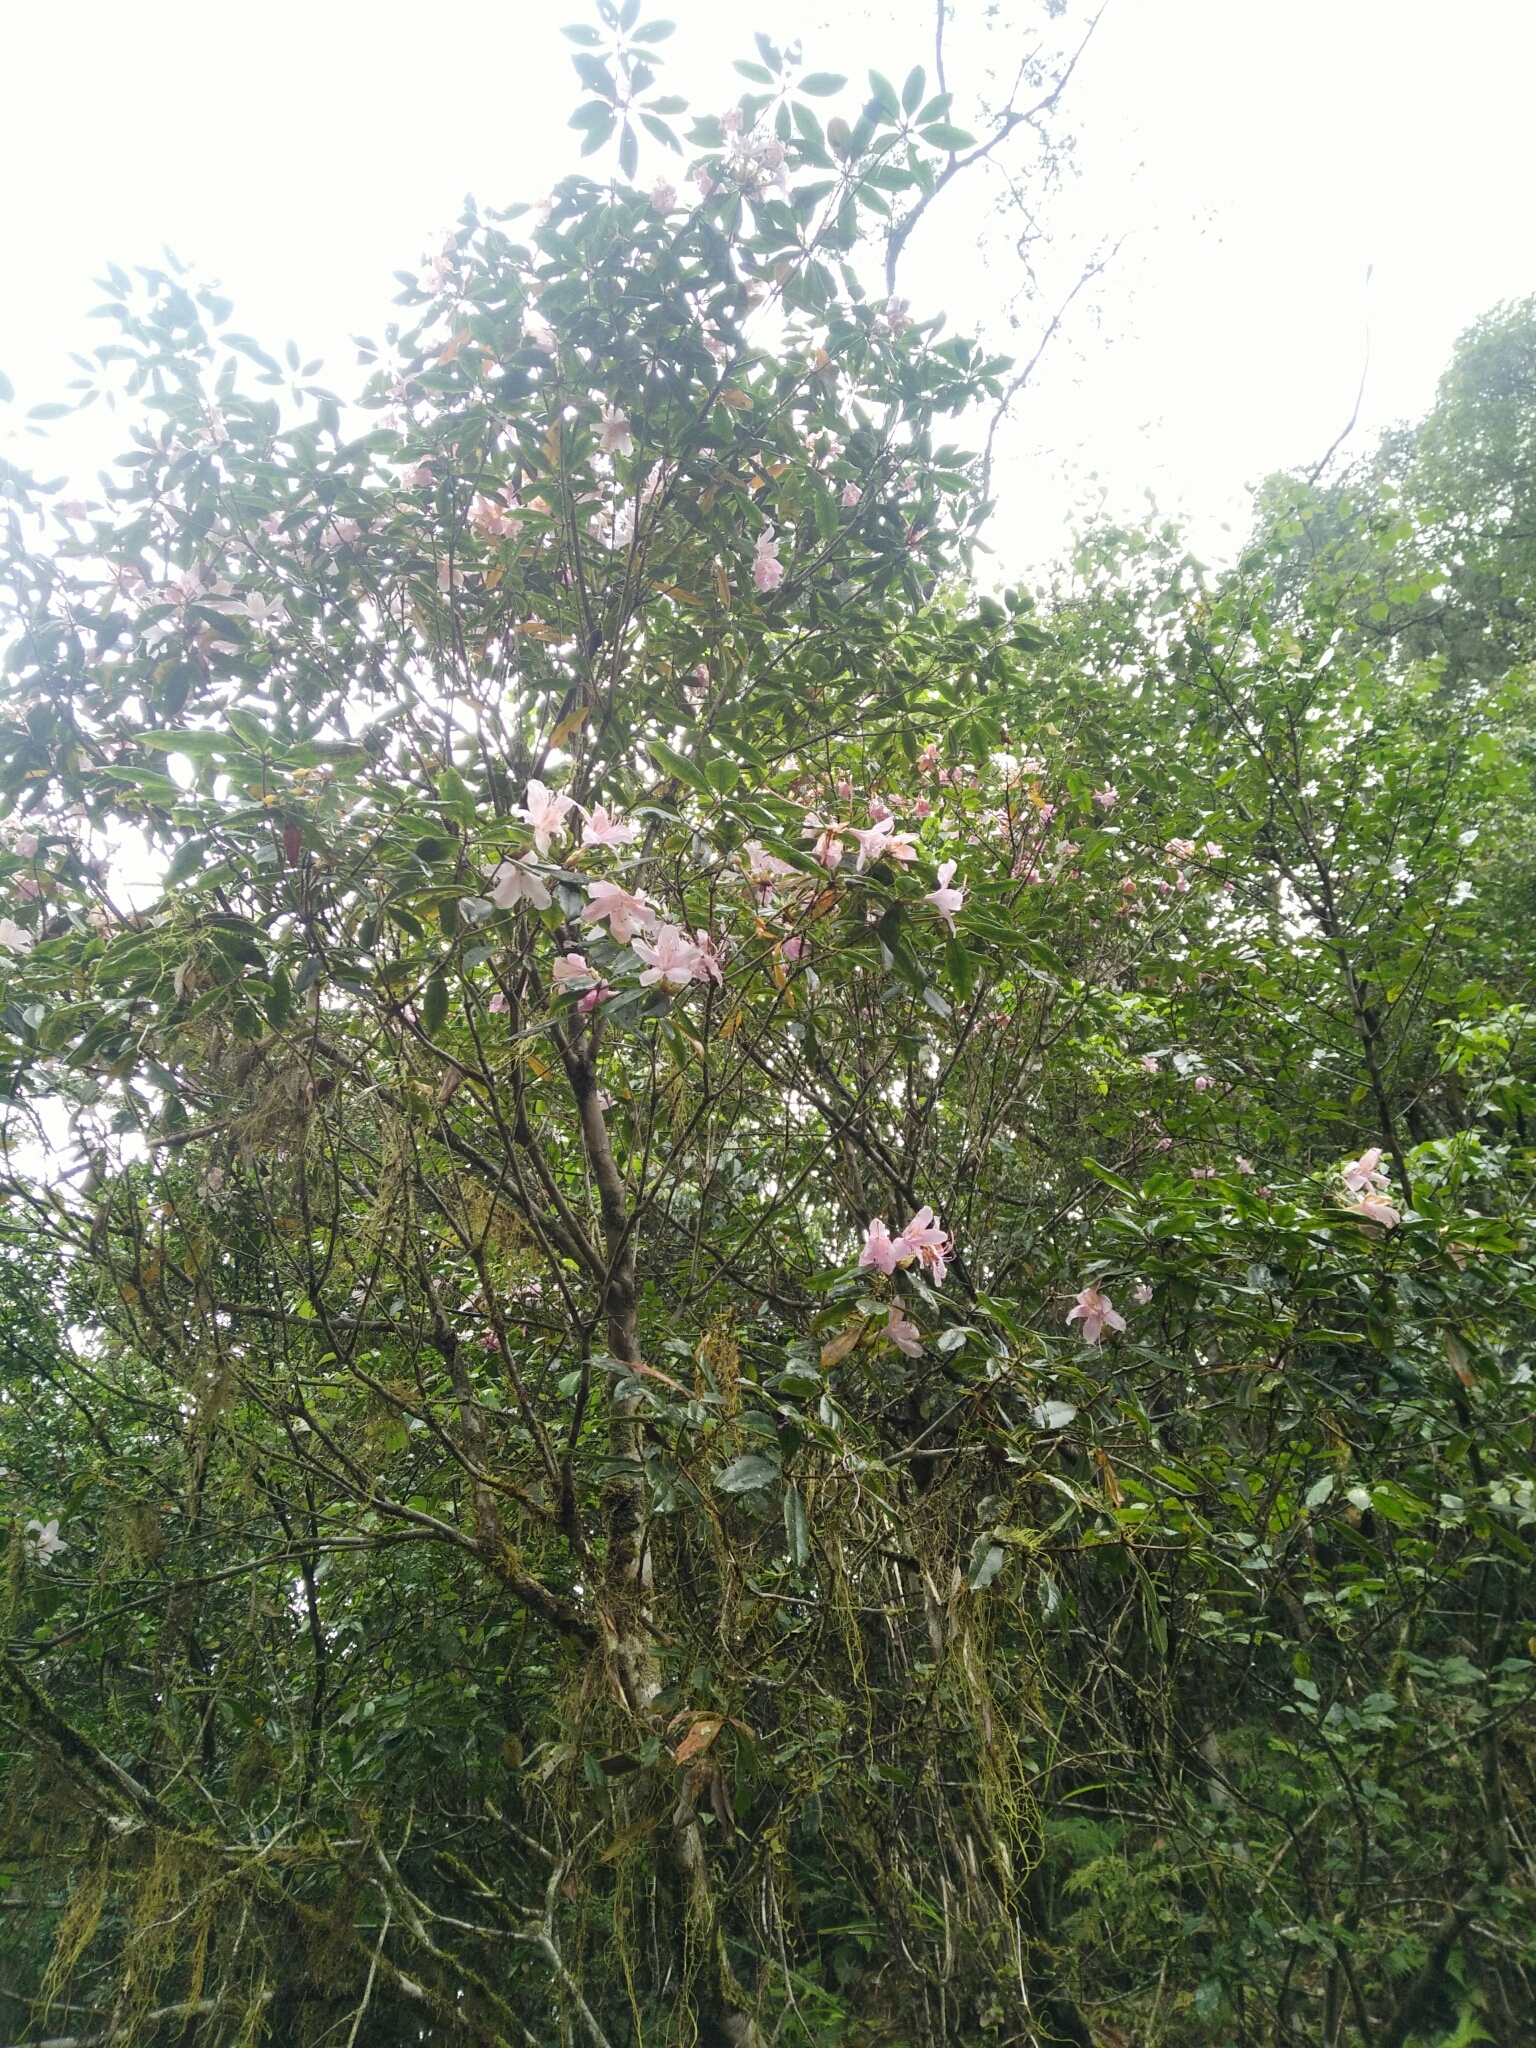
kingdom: Plantae
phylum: Tracheophyta
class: Magnoliopsida
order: Ericales
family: Ericaceae
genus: Rhododendron
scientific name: Rhododendron latoucheae
